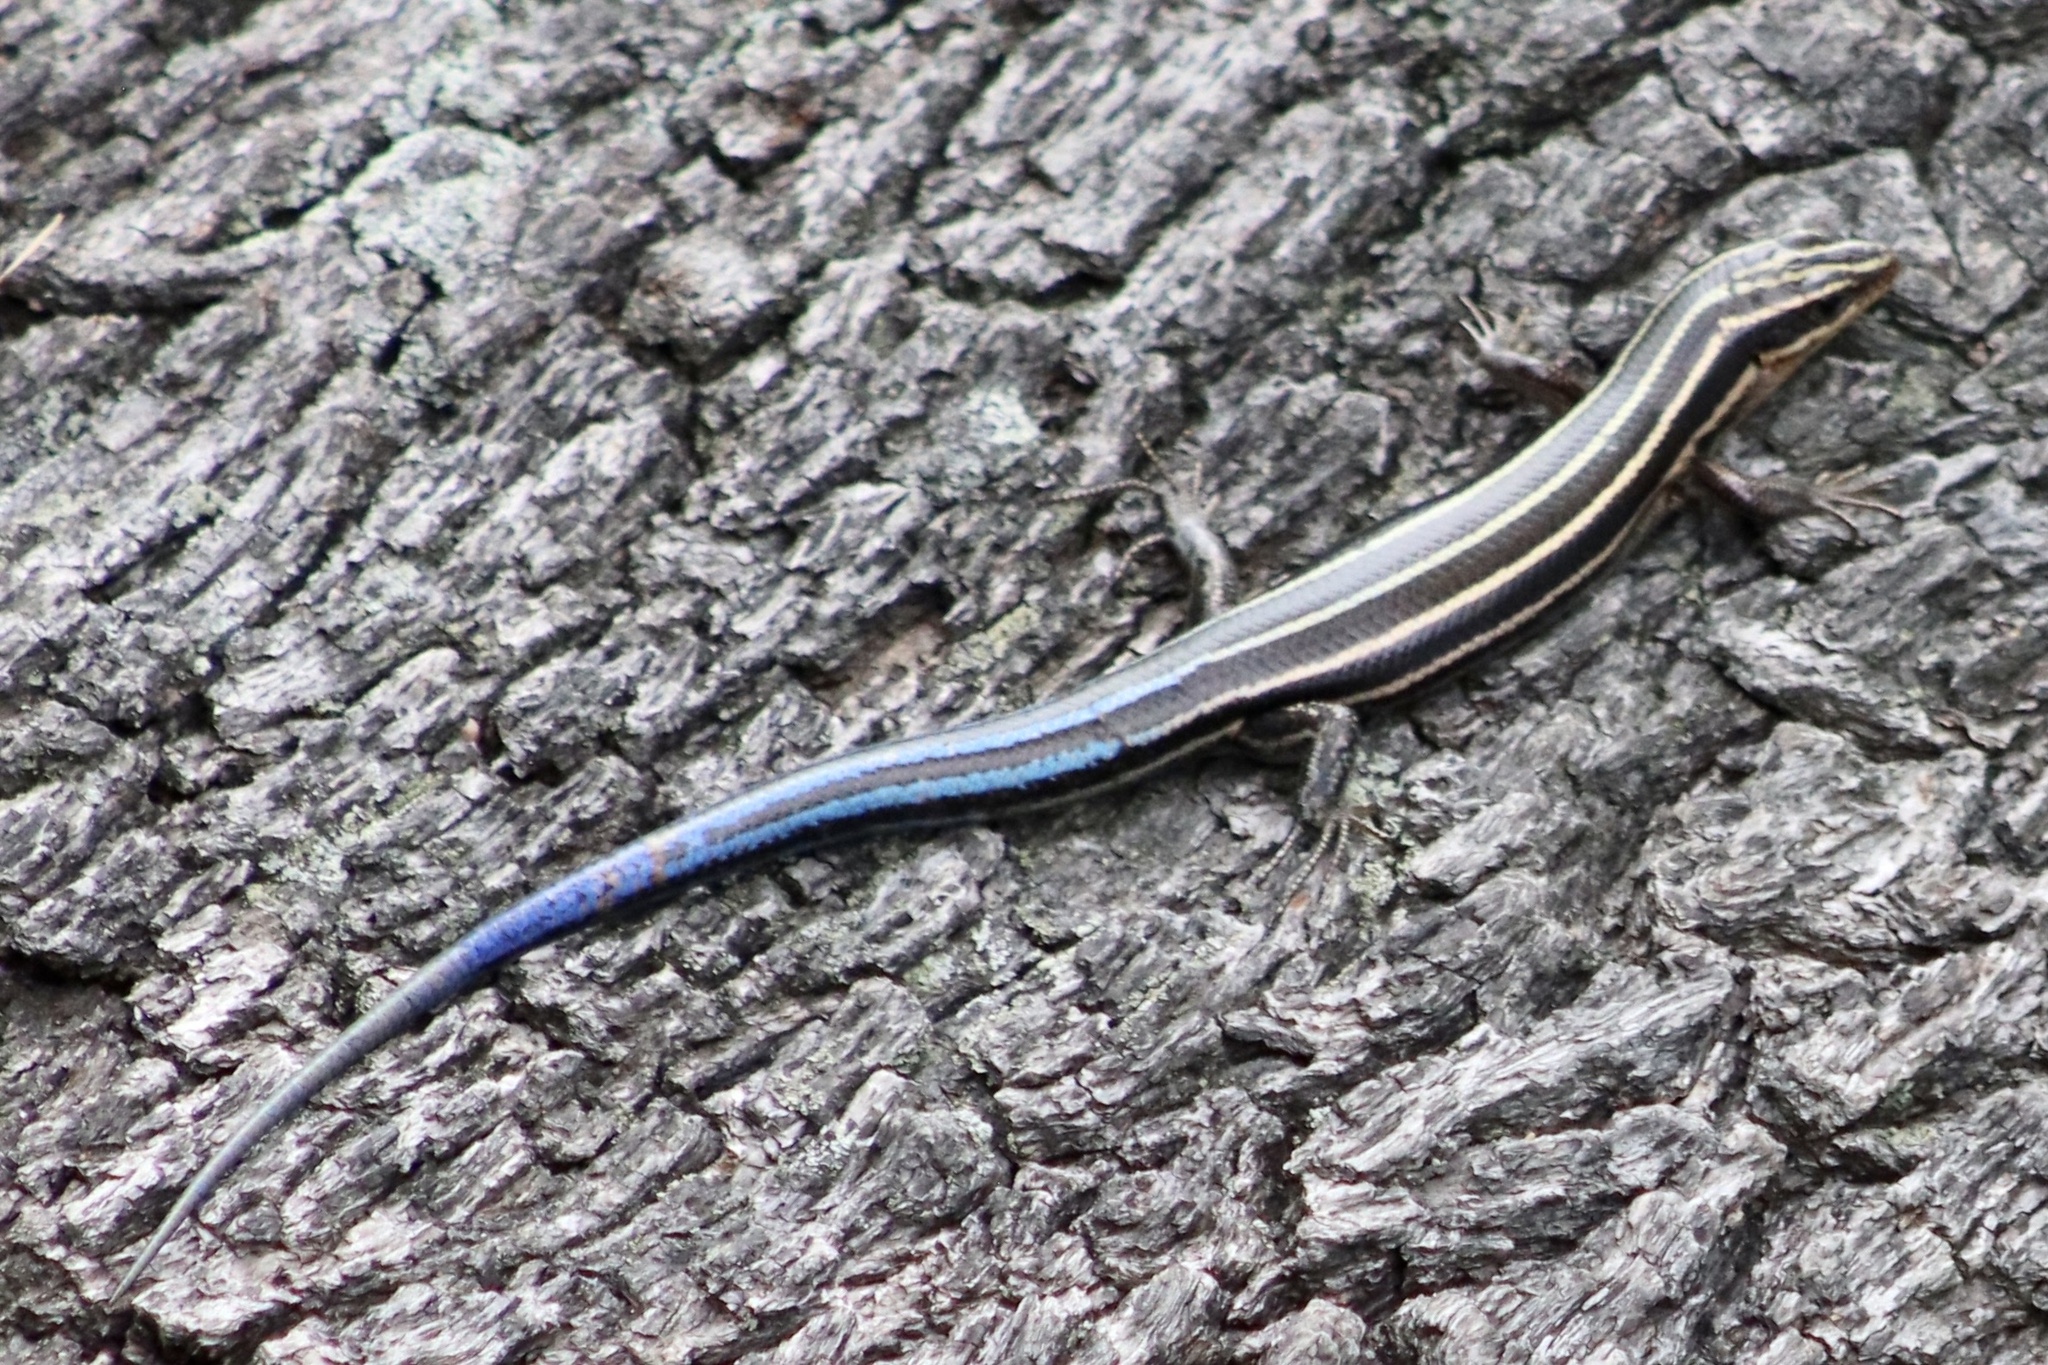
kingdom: Animalia
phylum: Chordata
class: Squamata
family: Scincidae
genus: Plestiodon
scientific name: Plestiodon laticeps
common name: Broadhead skink
